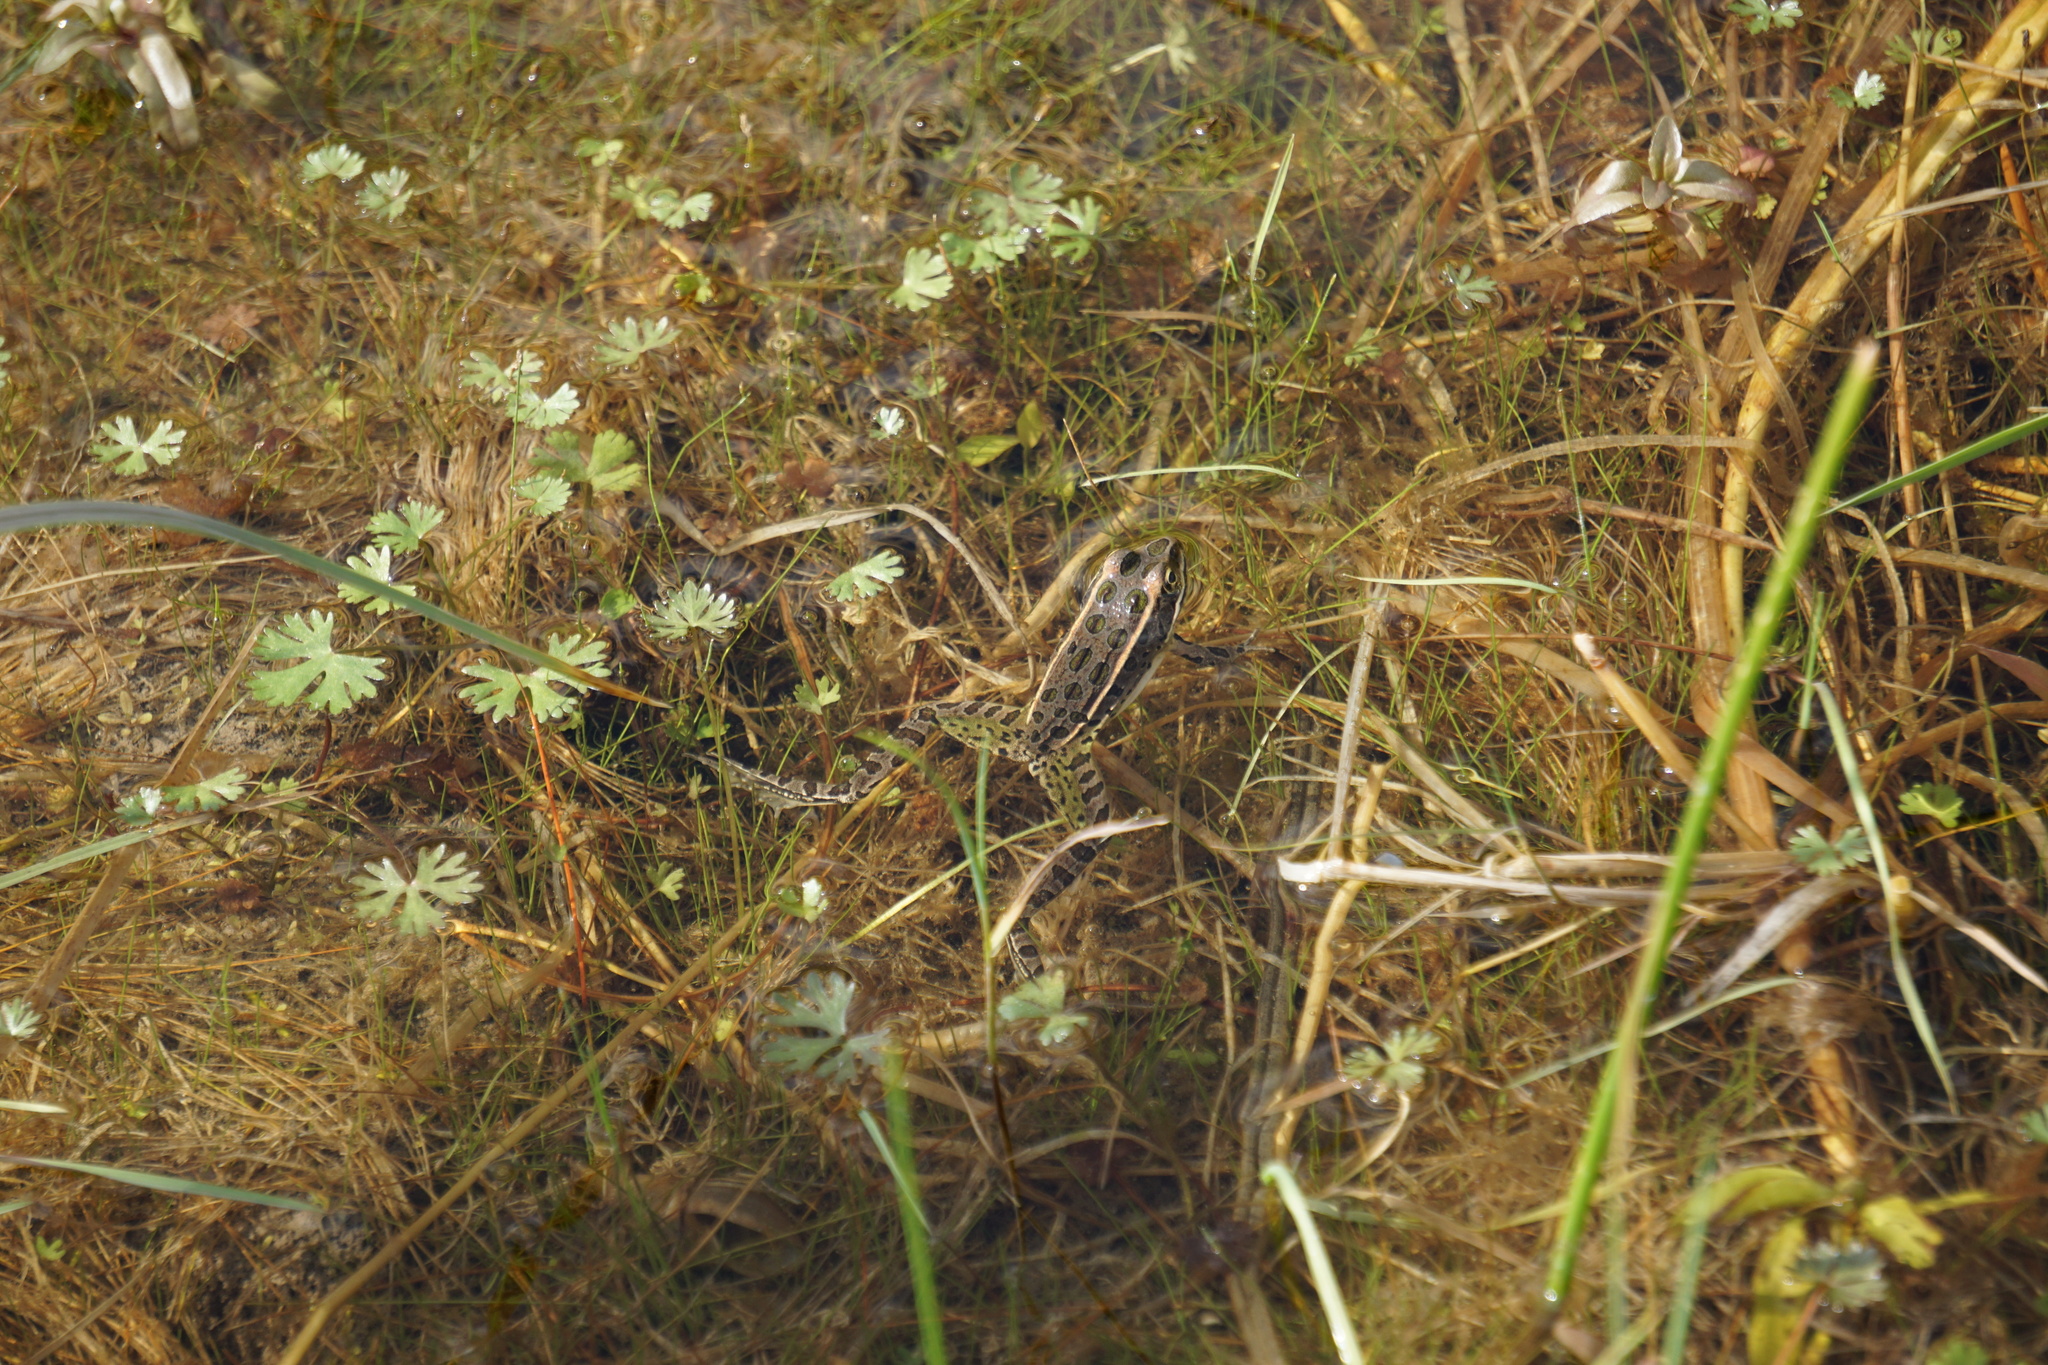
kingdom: Animalia
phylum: Chordata
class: Amphibia
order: Anura
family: Ranidae
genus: Lithobates
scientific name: Lithobates pipiens
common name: Northern leopard frog
